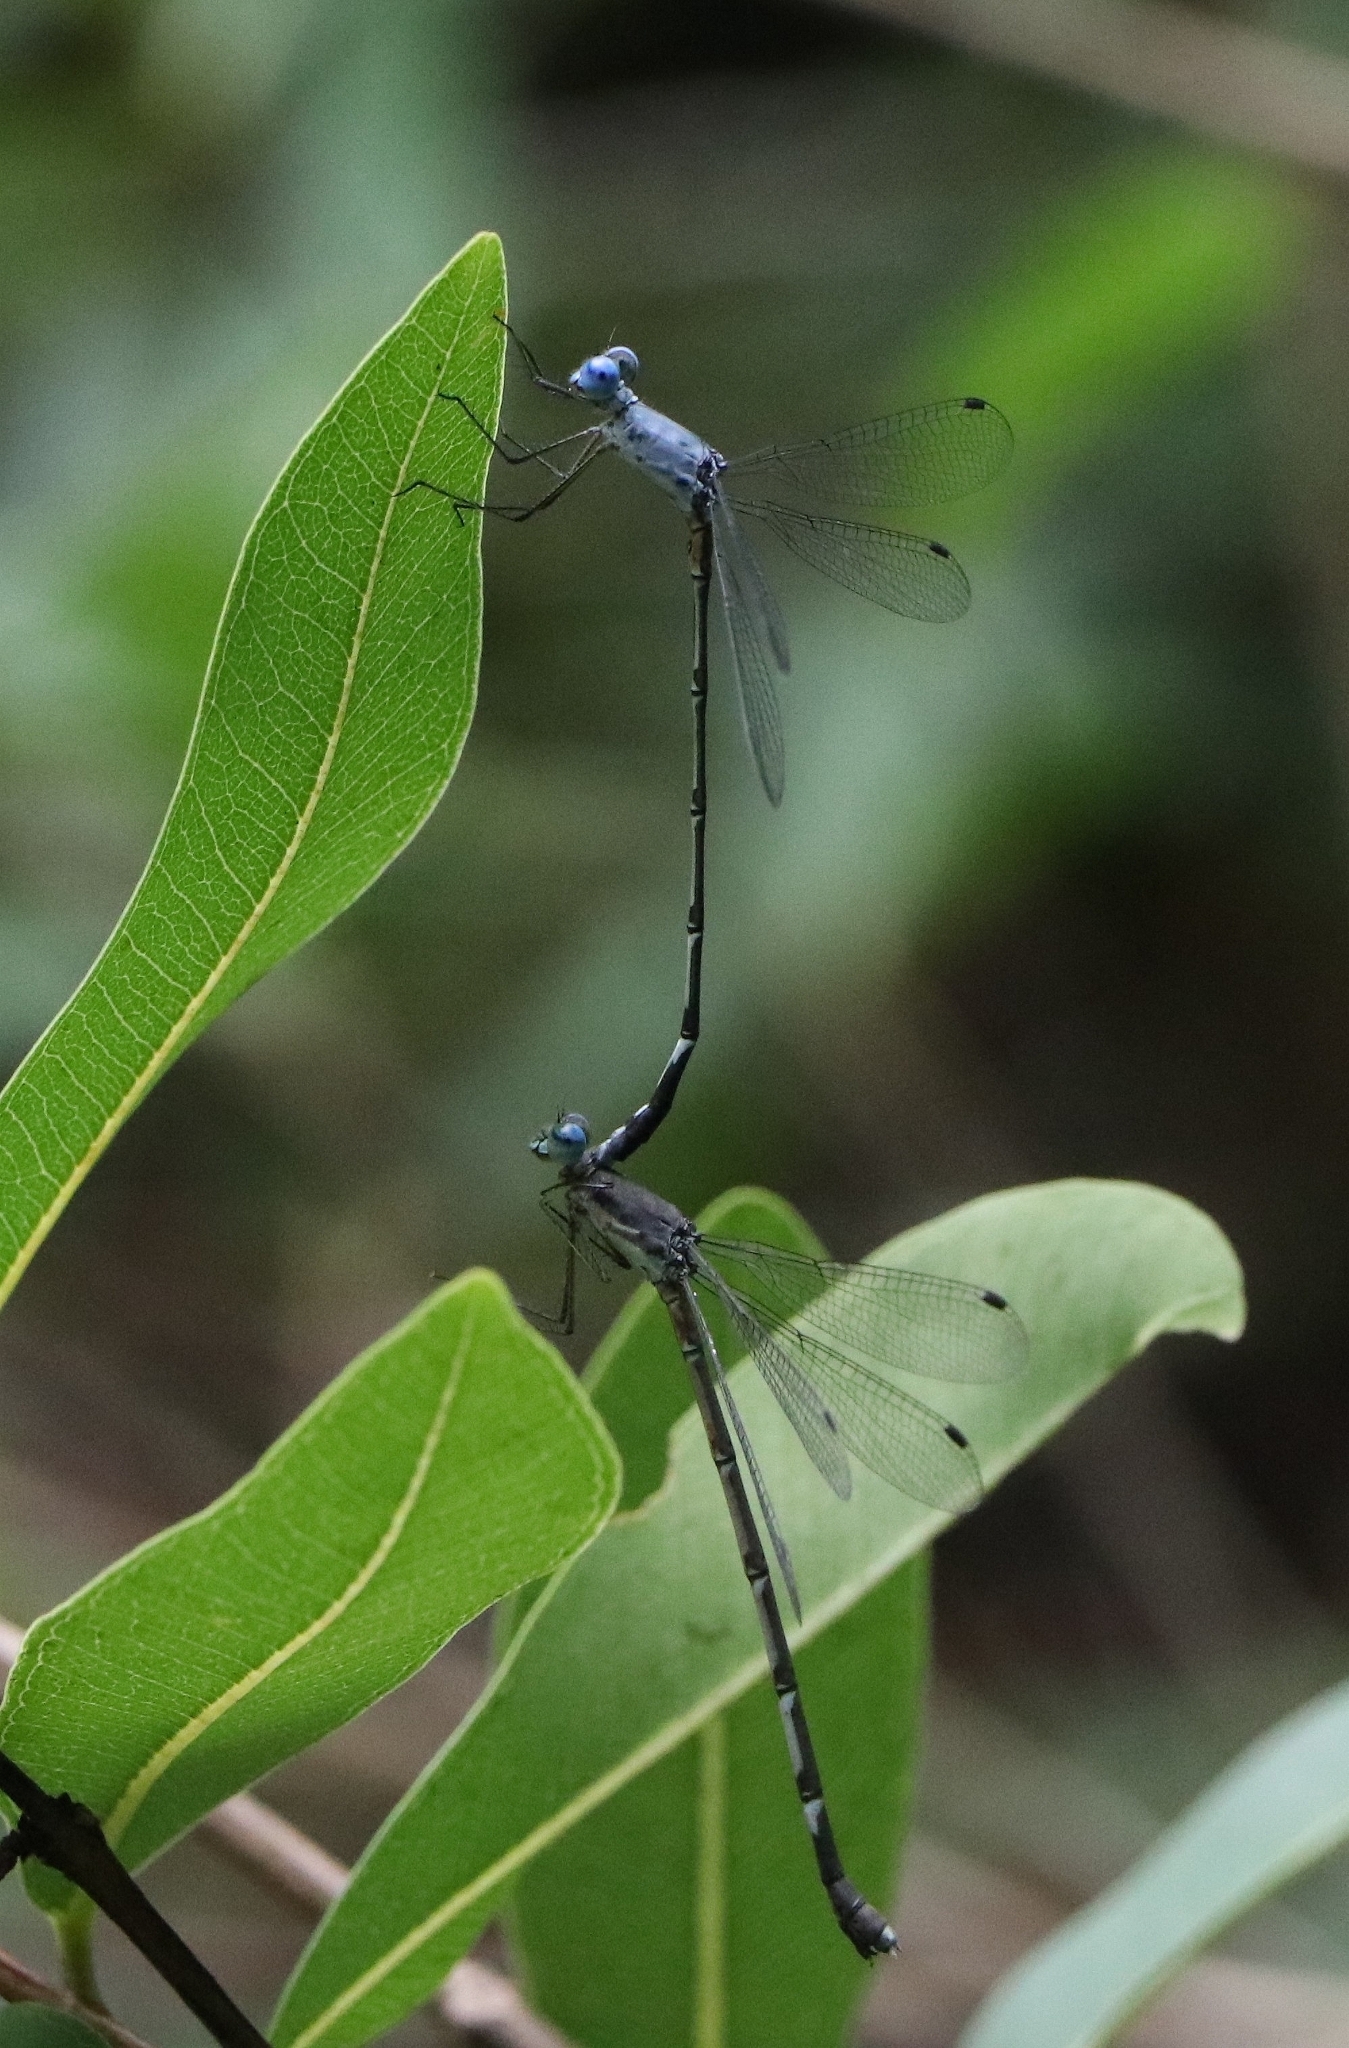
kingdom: Animalia
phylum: Arthropoda
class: Insecta
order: Odonata
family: Lestidae
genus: Lestes
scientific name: Lestes dorothea
